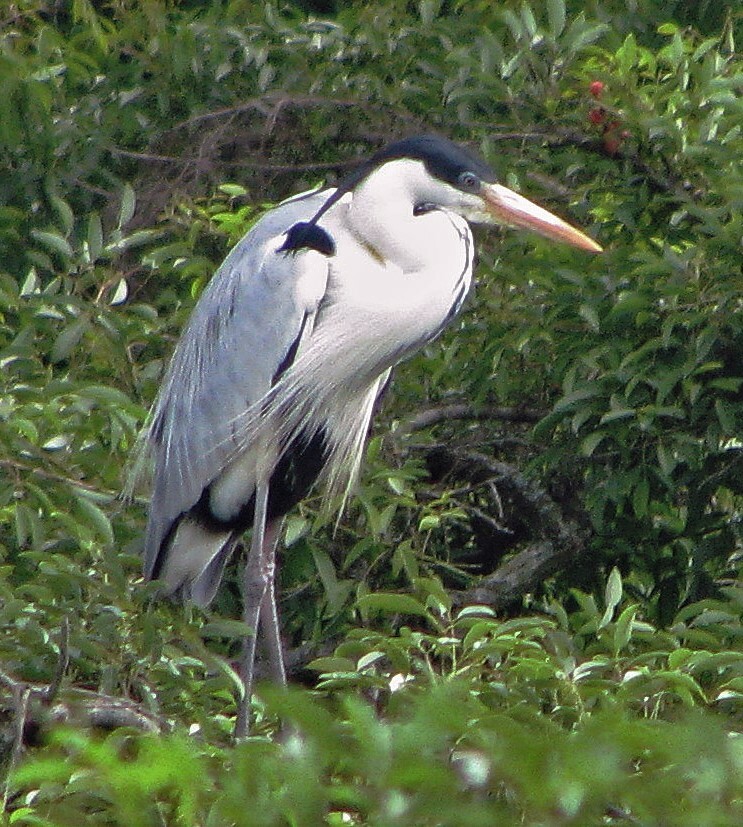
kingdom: Animalia
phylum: Chordata
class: Aves
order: Pelecaniformes
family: Ardeidae
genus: Ardea
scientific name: Ardea cocoi
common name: Cocoi heron
